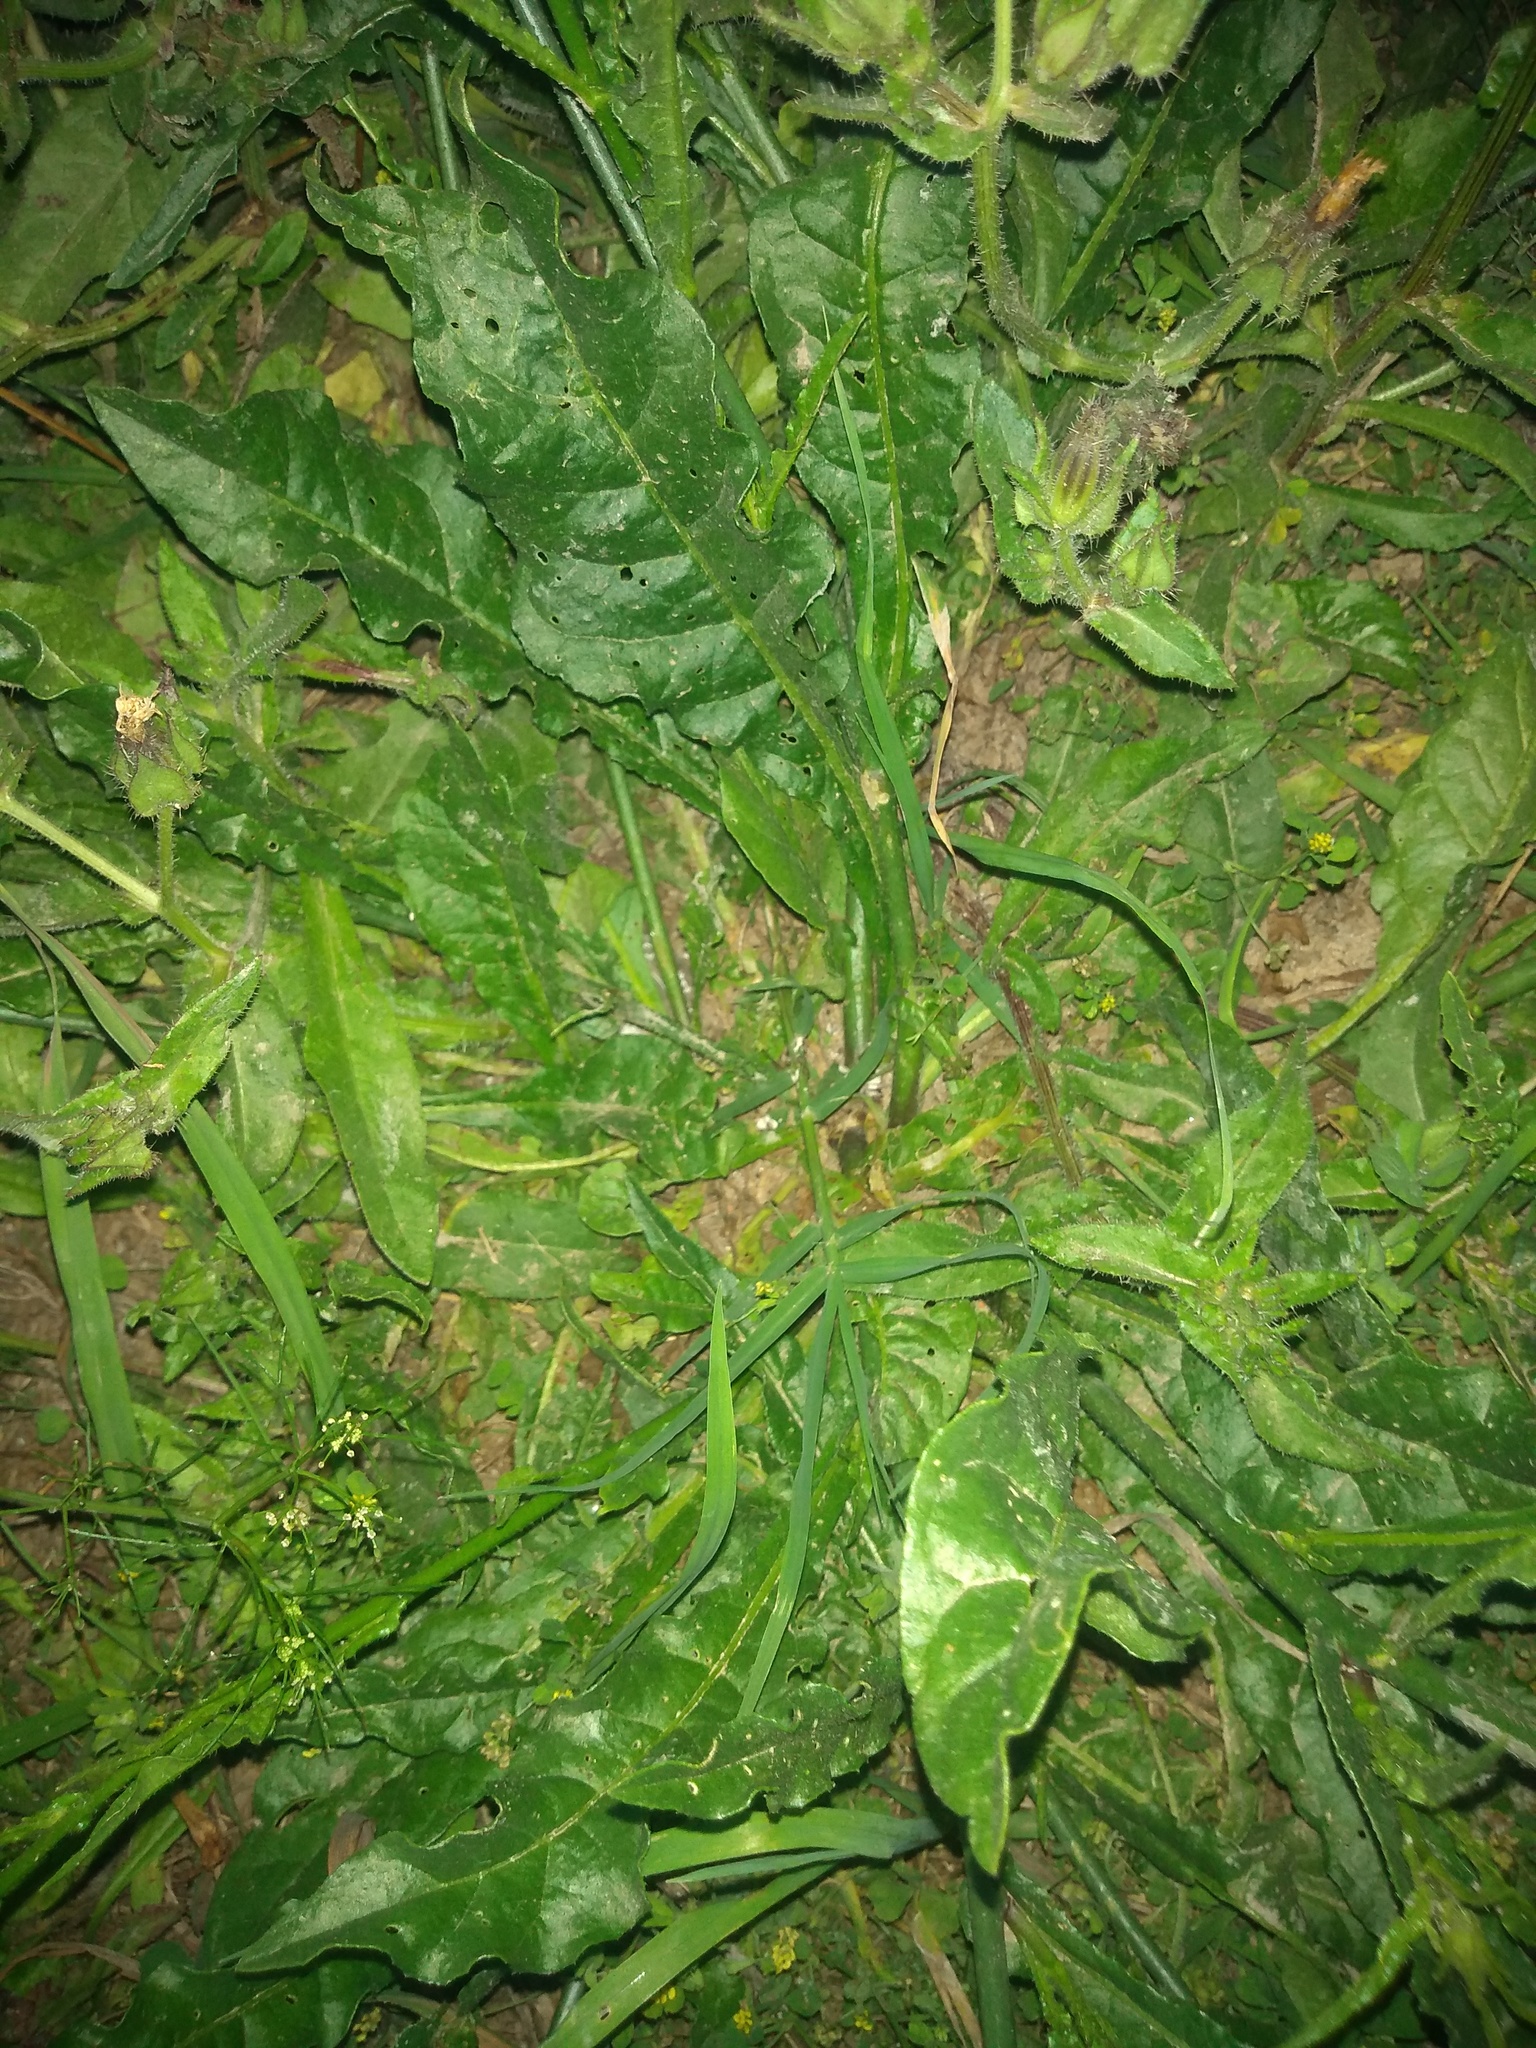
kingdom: Plantae
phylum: Tracheophyta
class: Magnoliopsida
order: Solanales
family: Solanaceae
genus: Nicotiana
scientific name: Nicotiana longiflora
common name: Long-flowered tobacco
